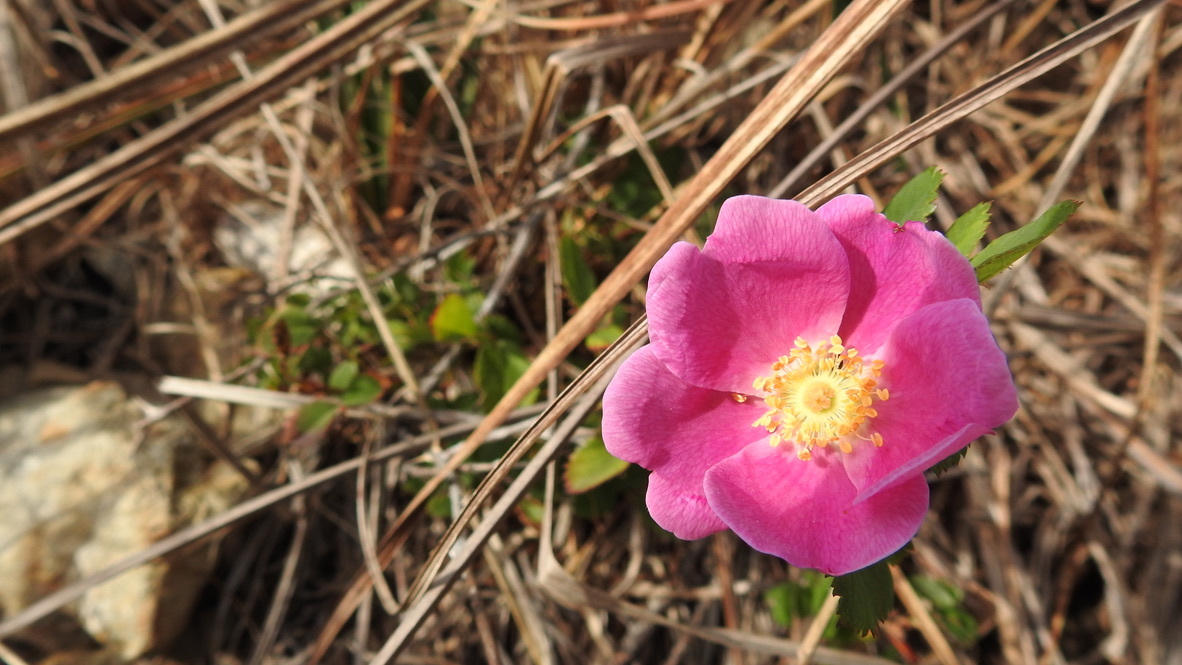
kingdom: Plantae
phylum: Tracheophyta
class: Magnoliopsida
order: Rosales
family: Rosaceae
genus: Rosa
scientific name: Rosa californica
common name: California rose
